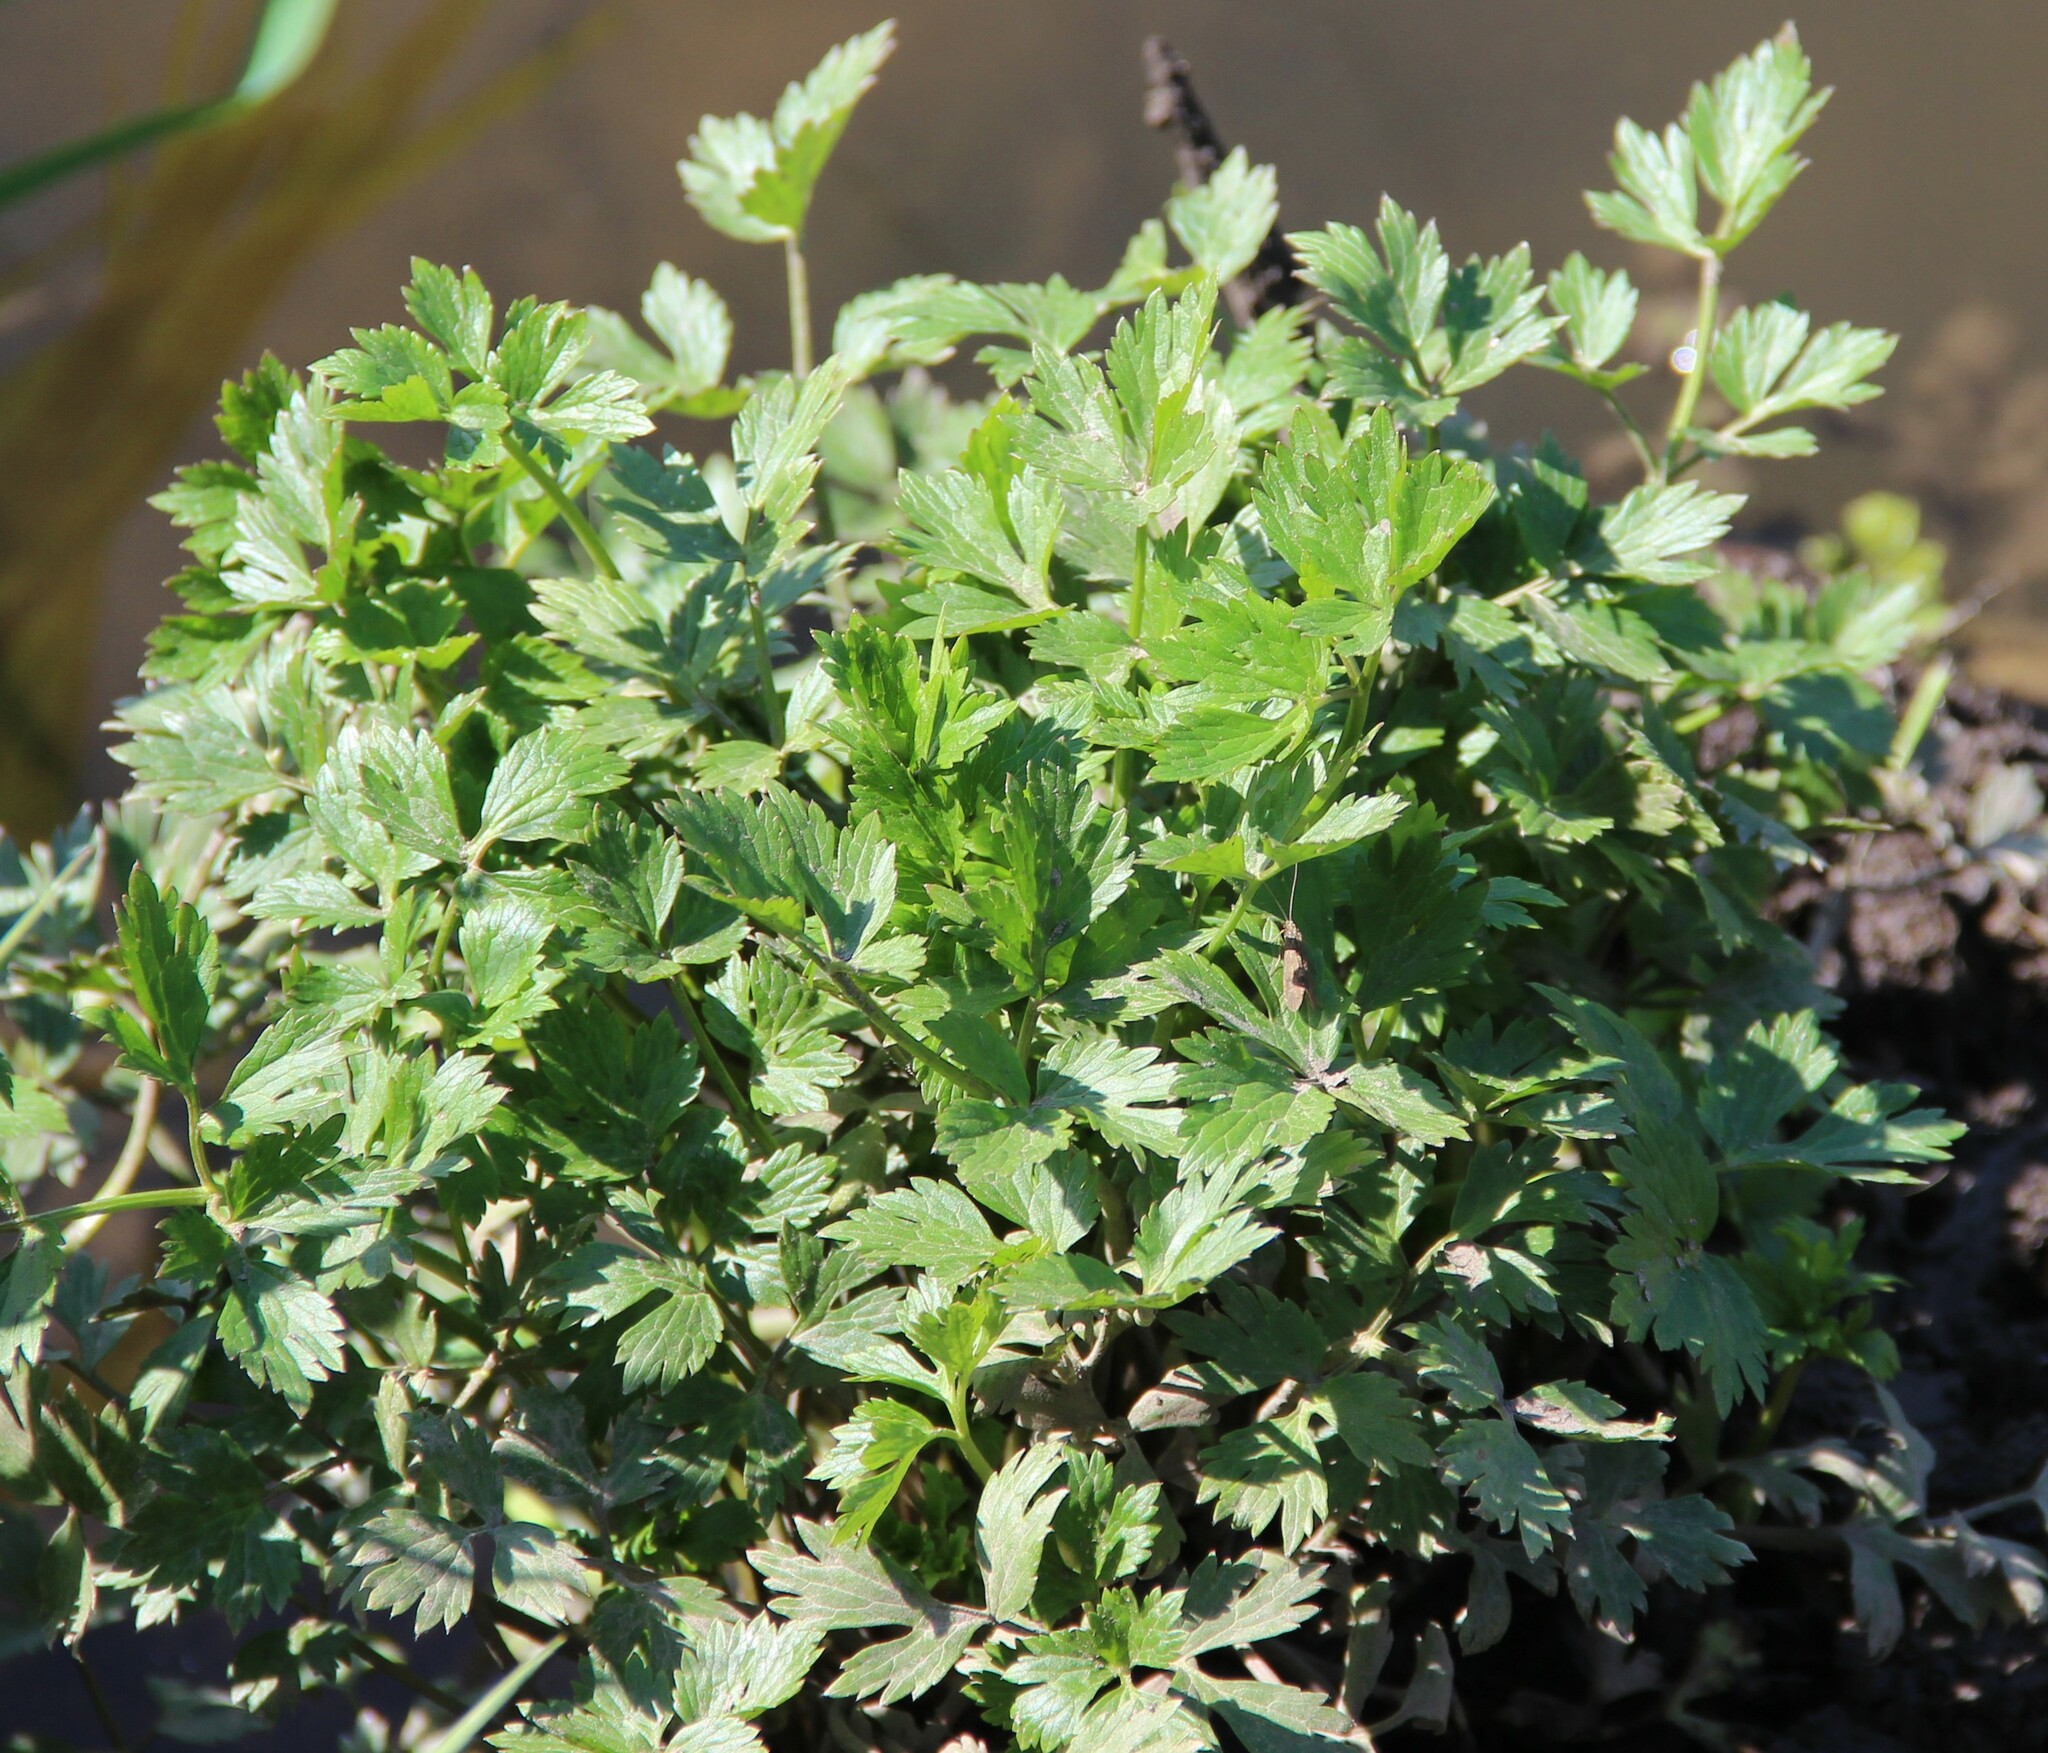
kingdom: Plantae
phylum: Tracheophyta
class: Magnoliopsida
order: Ranunculales
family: Ranunculaceae
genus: Ranunculus
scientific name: Ranunculus repens
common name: Creeping buttercup
